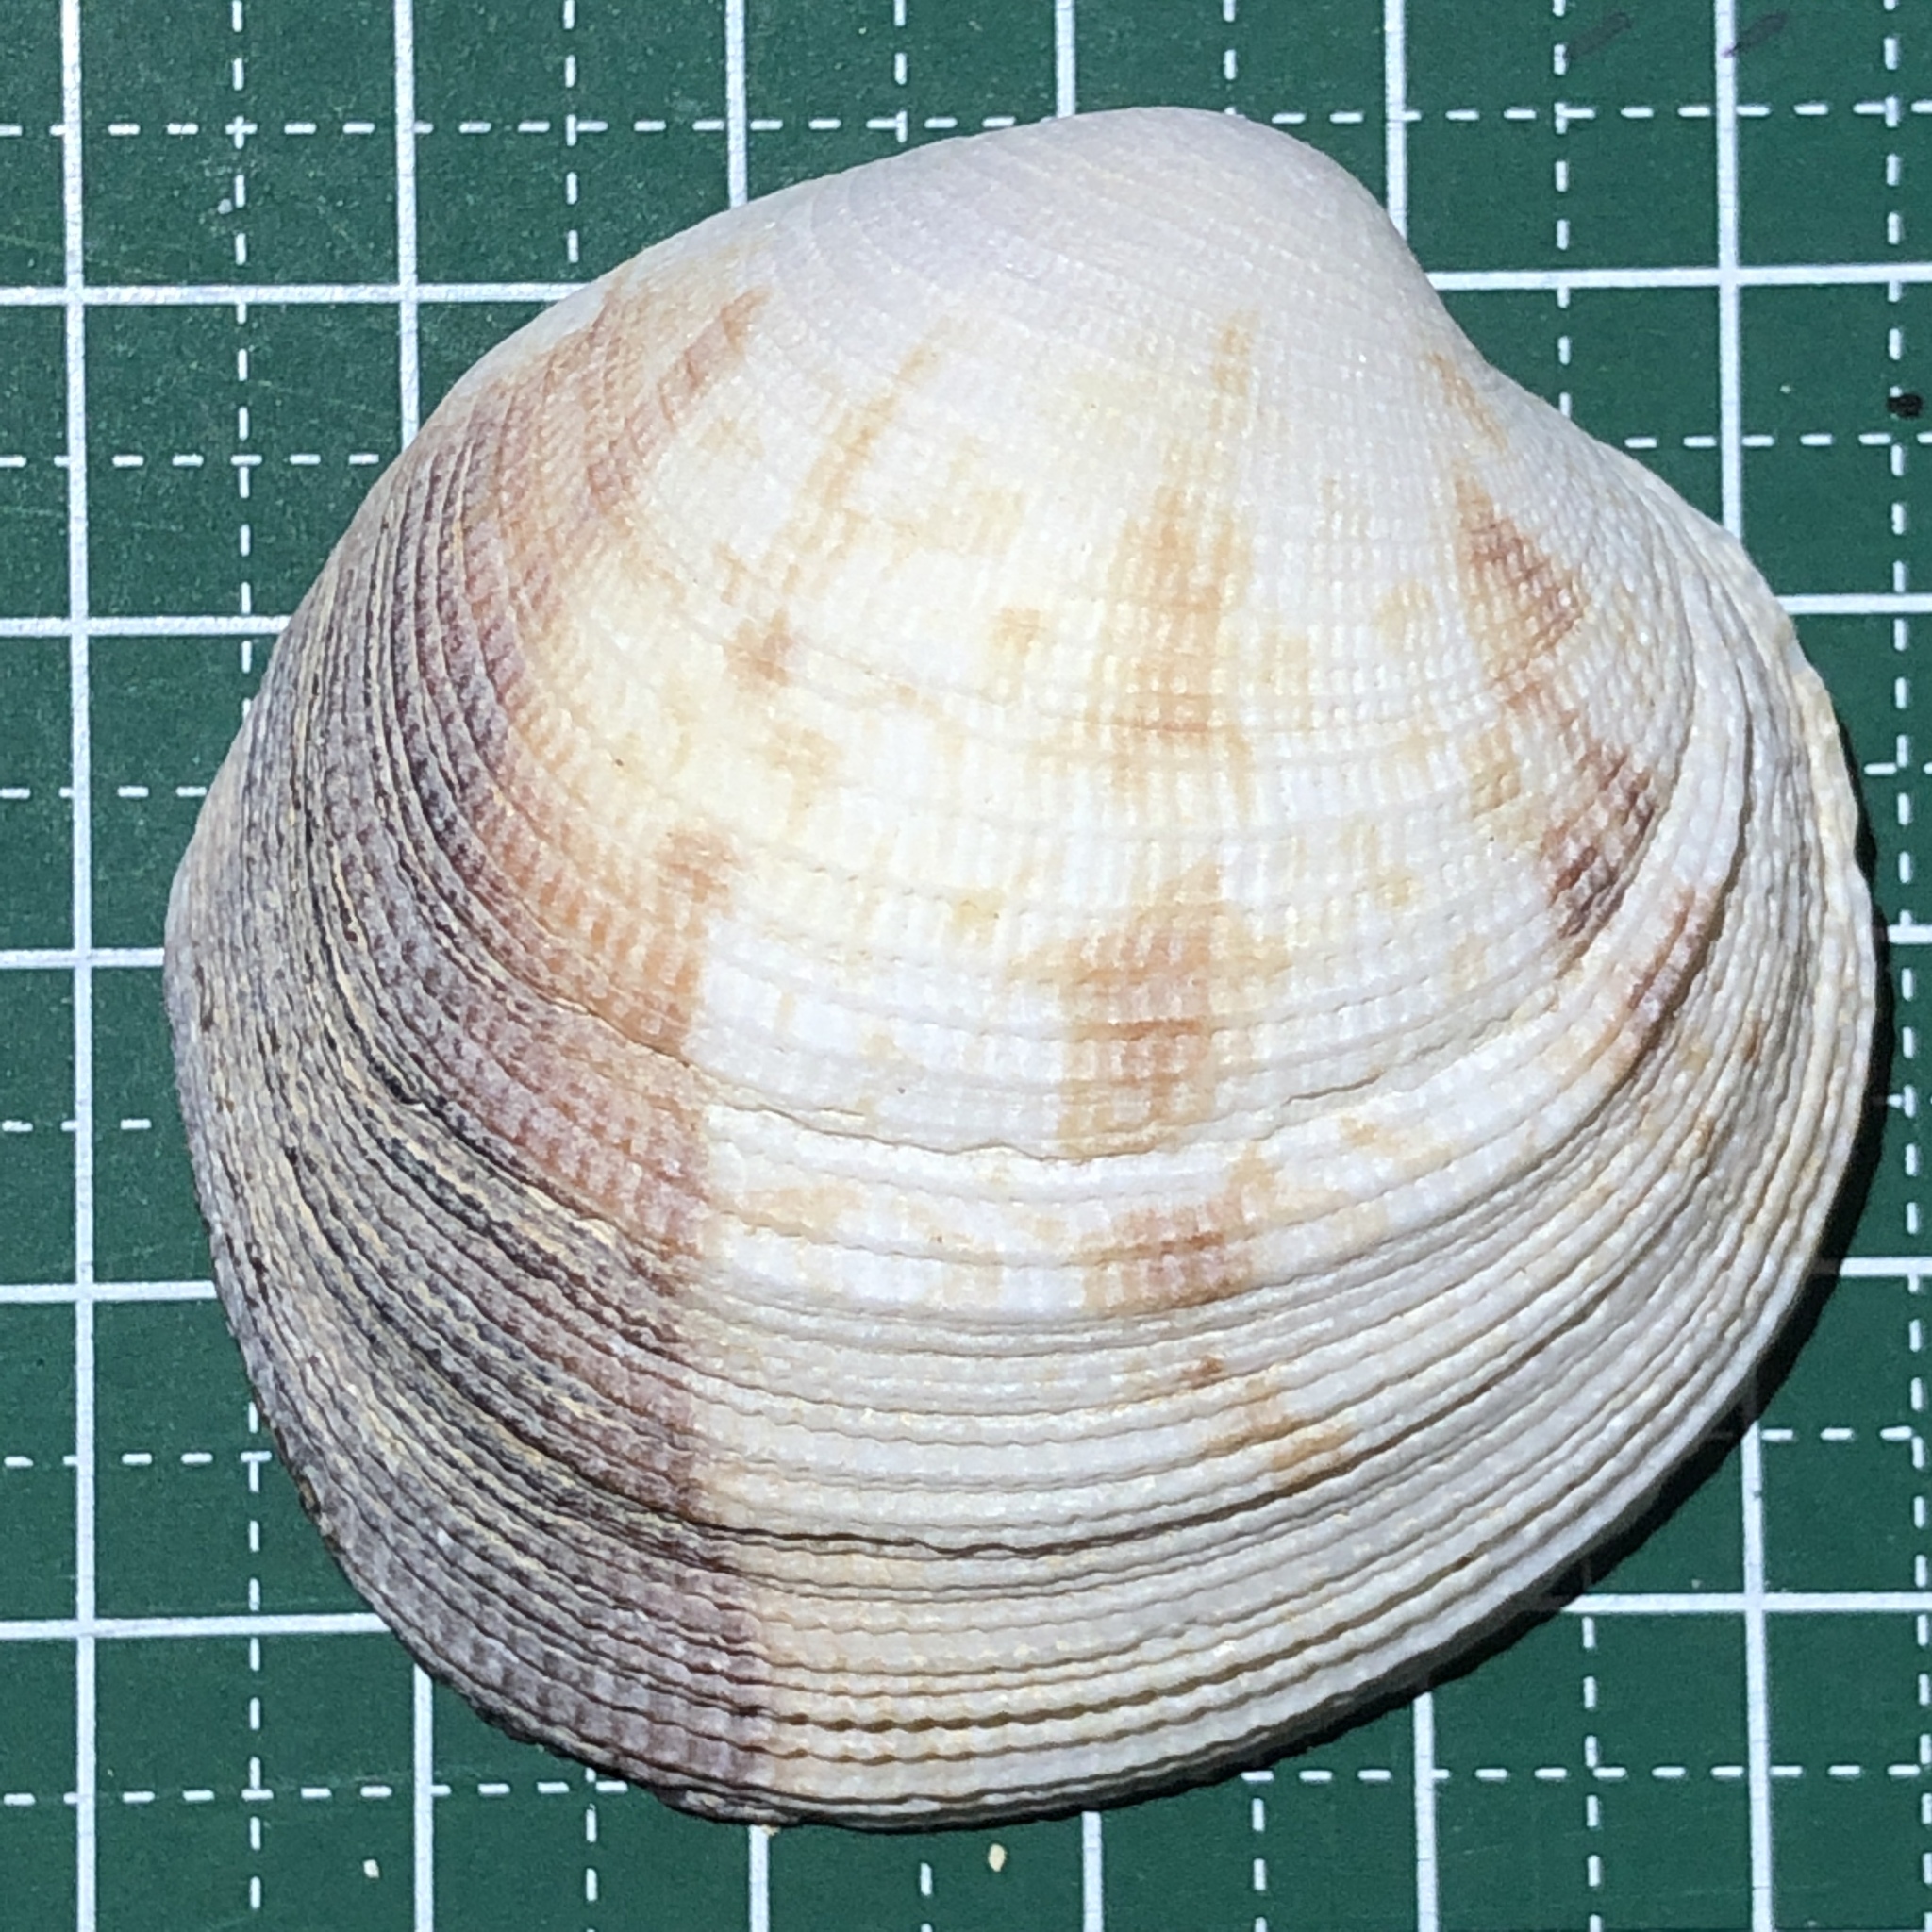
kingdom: Animalia
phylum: Mollusca
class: Bivalvia
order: Venerida
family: Veneridae
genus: Periglypta
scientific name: Periglypta puerpera
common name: Youthful venus
